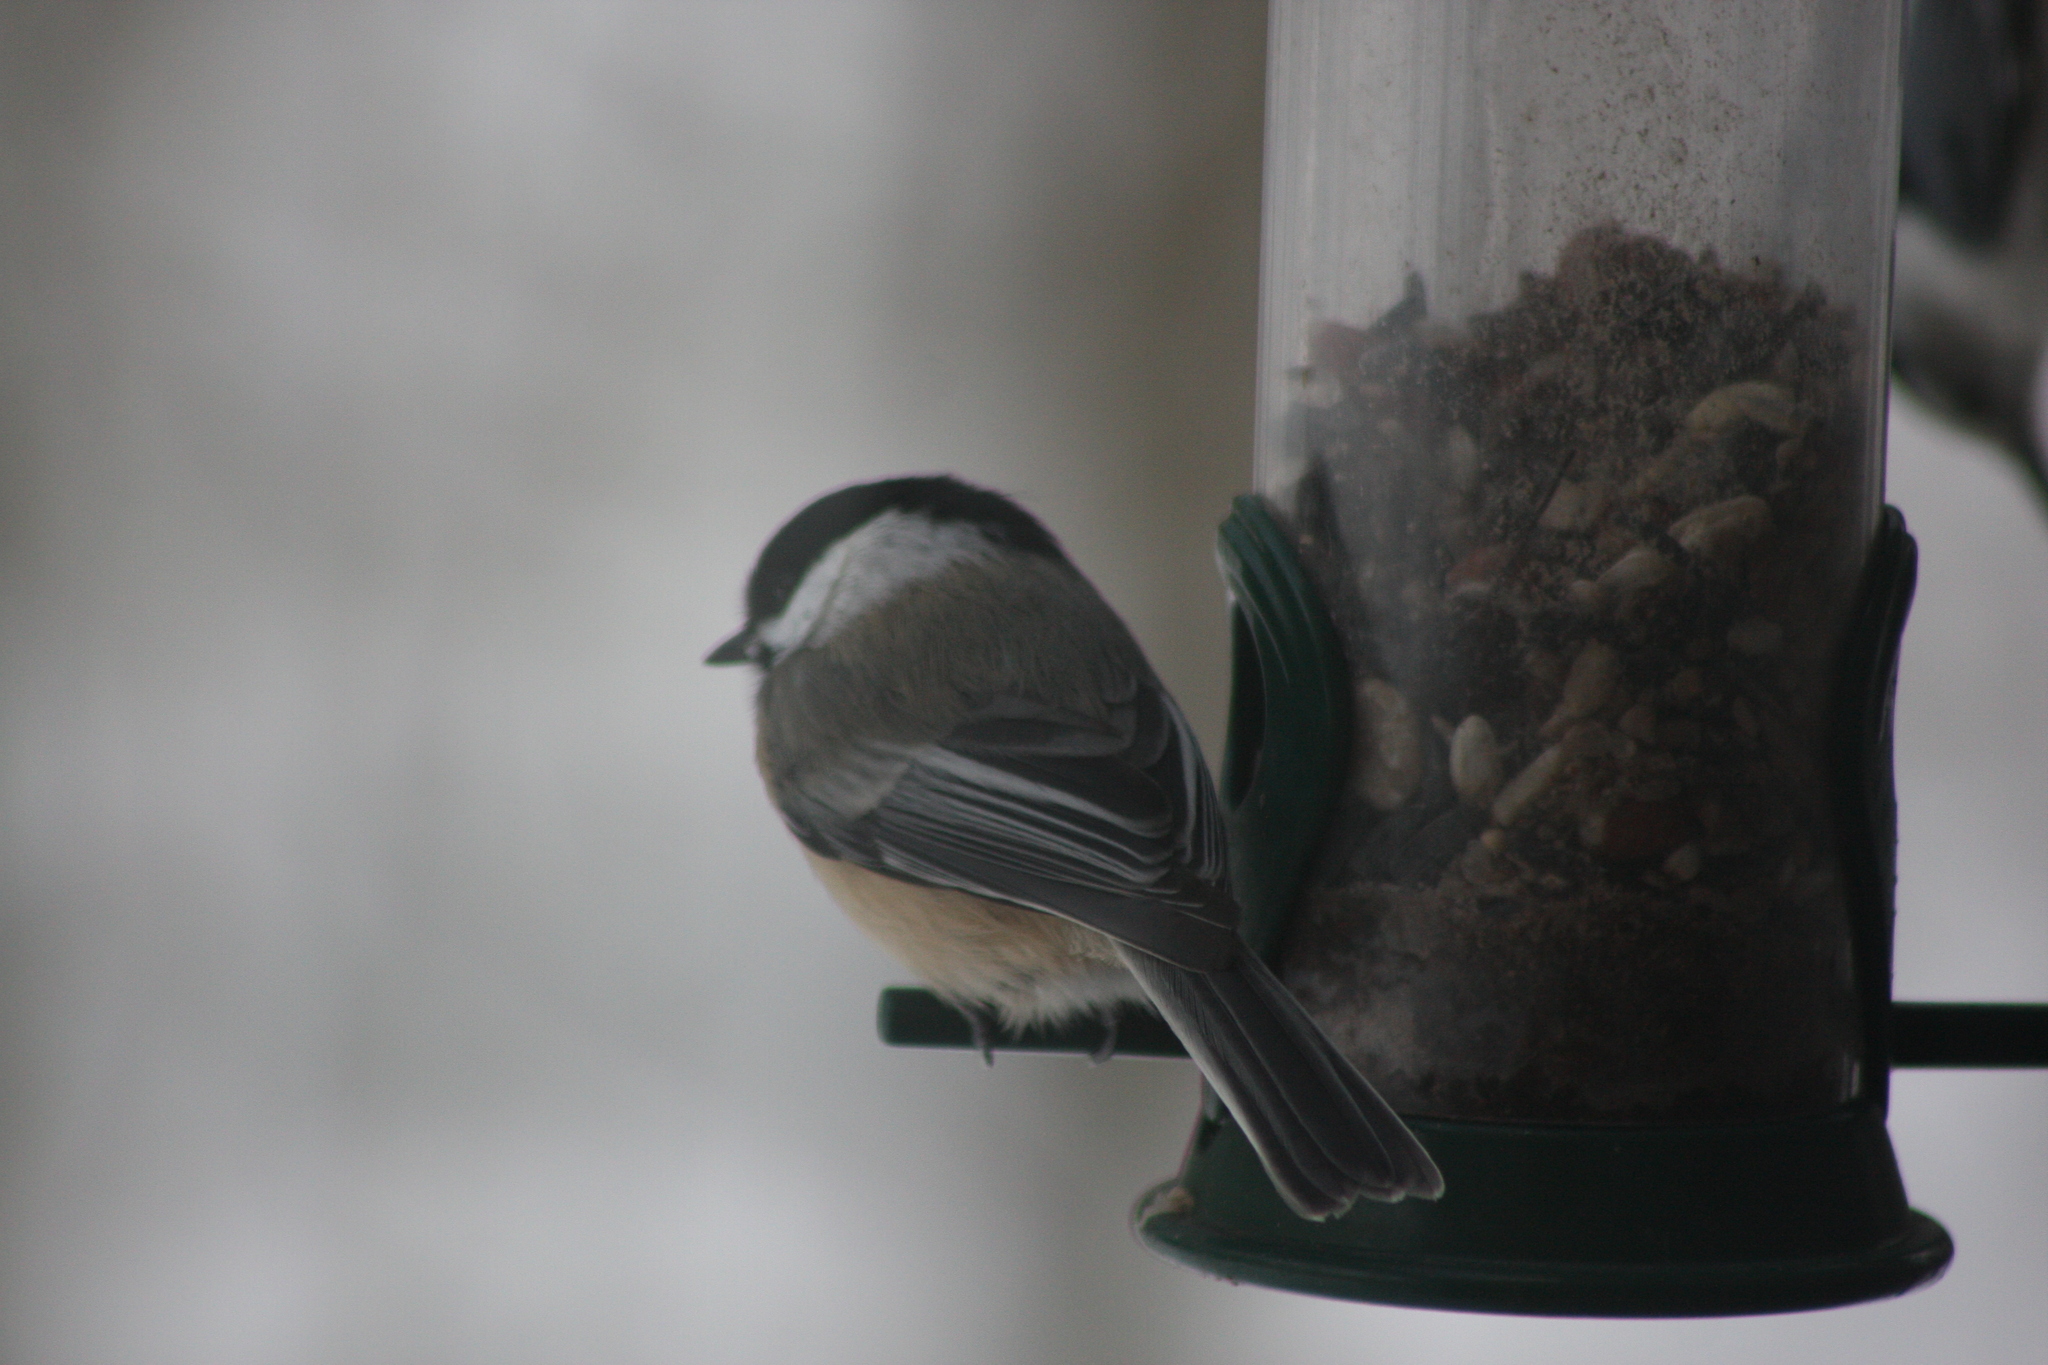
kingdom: Animalia
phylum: Chordata
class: Aves
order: Passeriformes
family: Paridae
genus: Poecile
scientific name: Poecile atricapillus
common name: Black-capped chickadee
